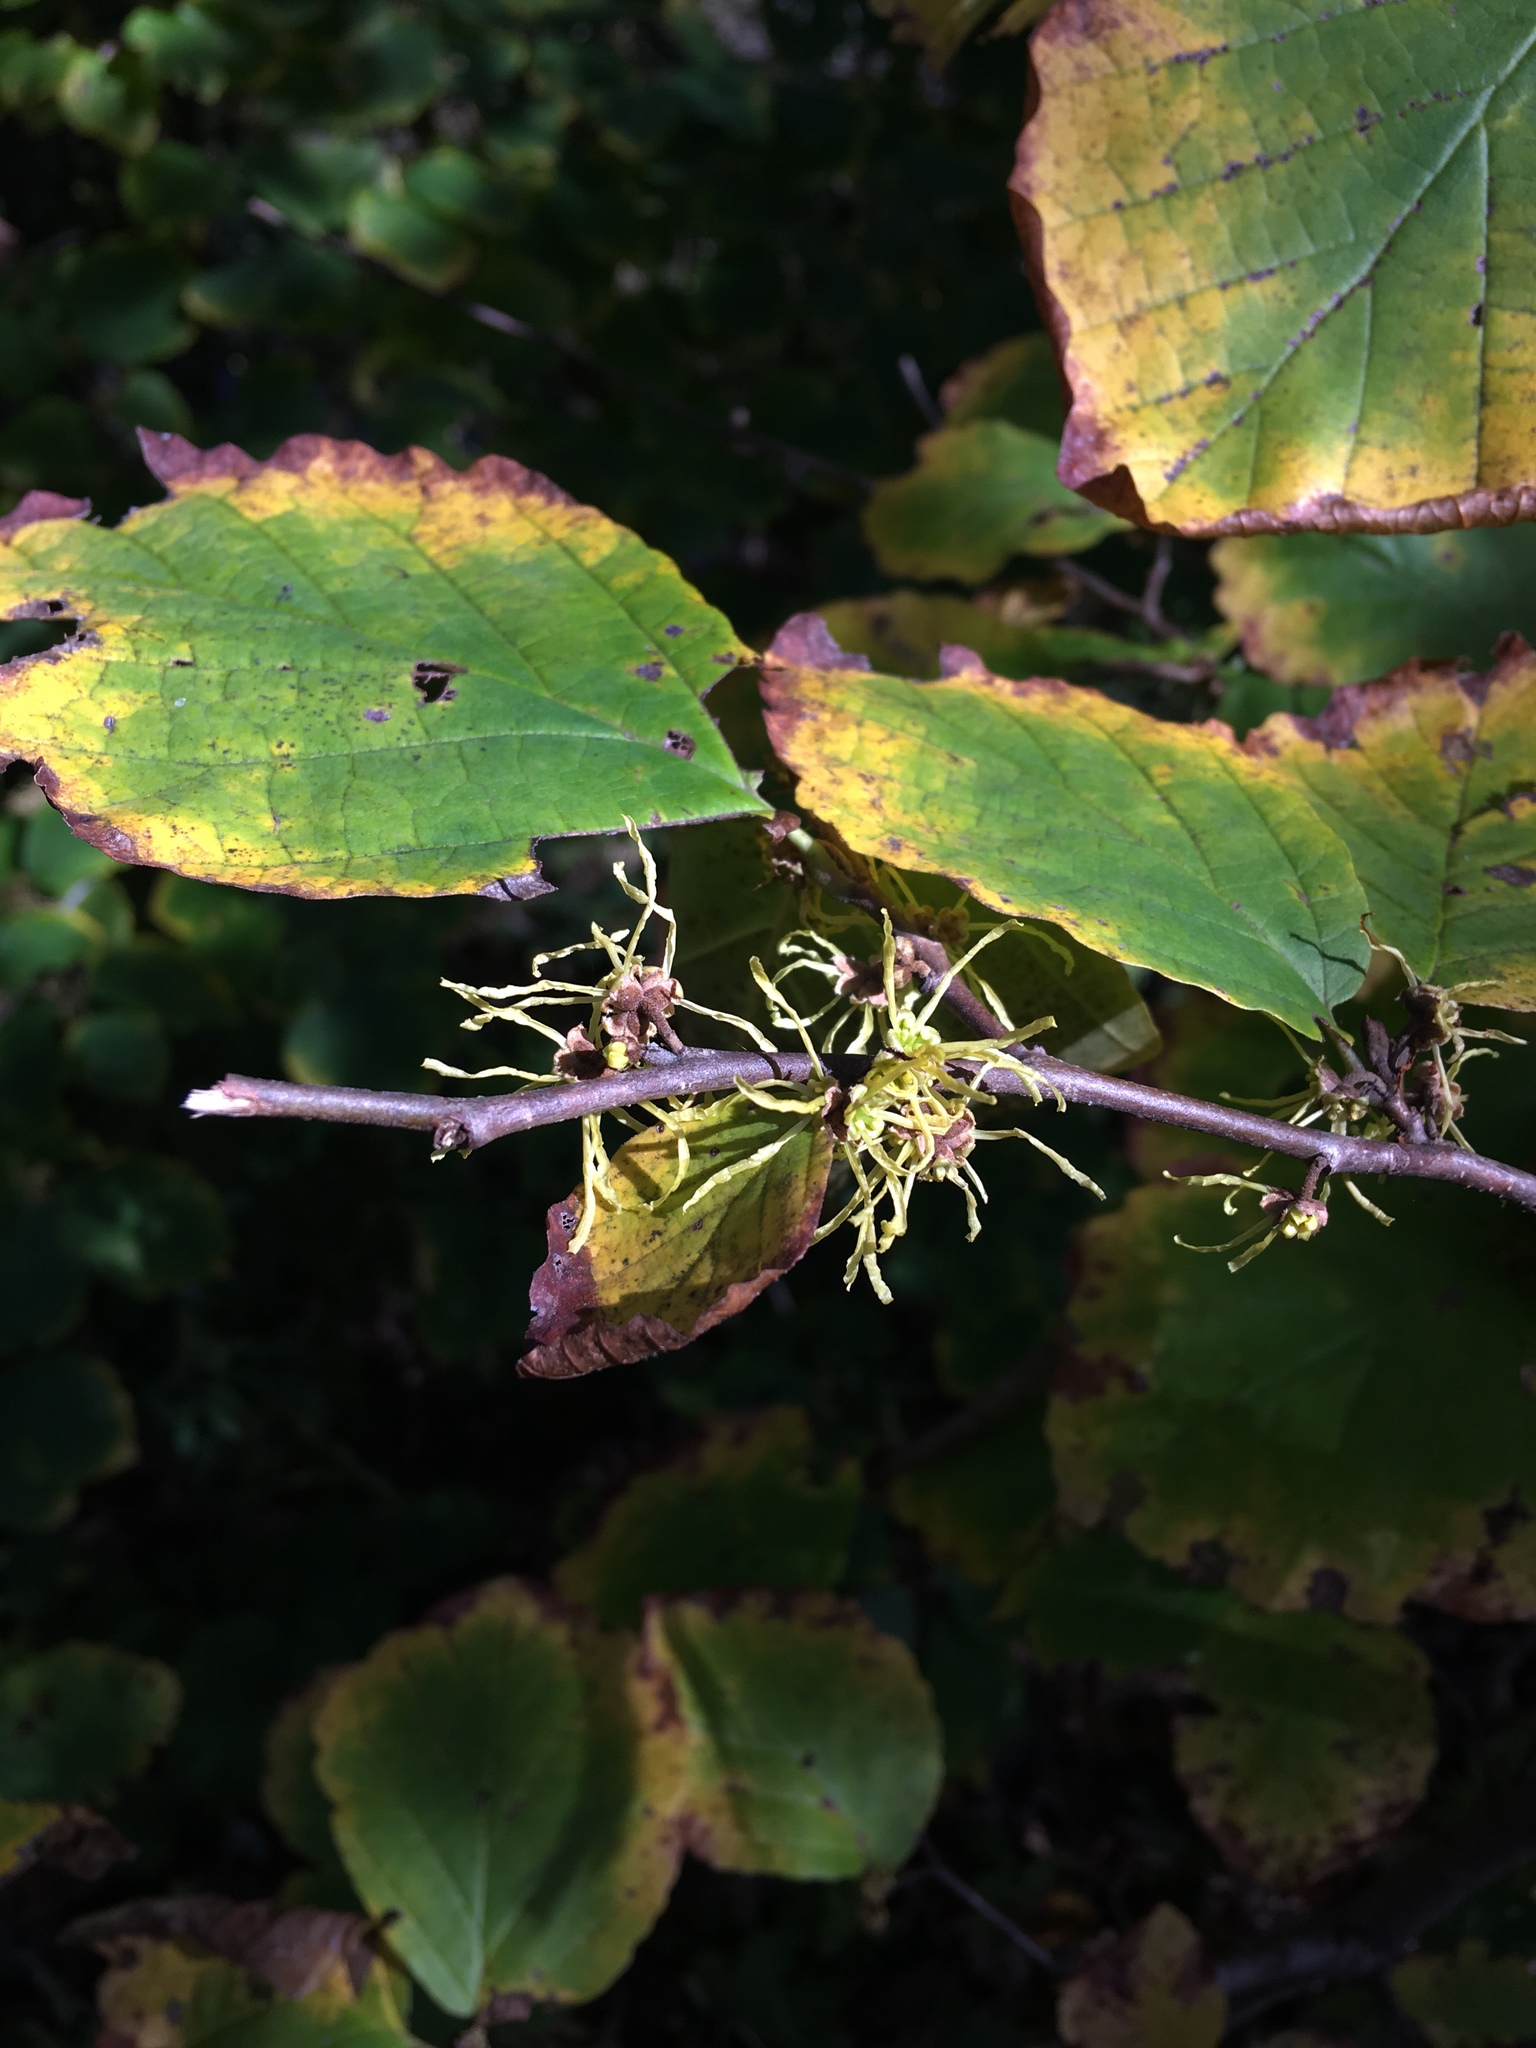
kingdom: Plantae
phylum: Tracheophyta
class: Magnoliopsida
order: Saxifragales
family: Hamamelidaceae
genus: Hamamelis
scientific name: Hamamelis virginiana
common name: Witch-hazel
